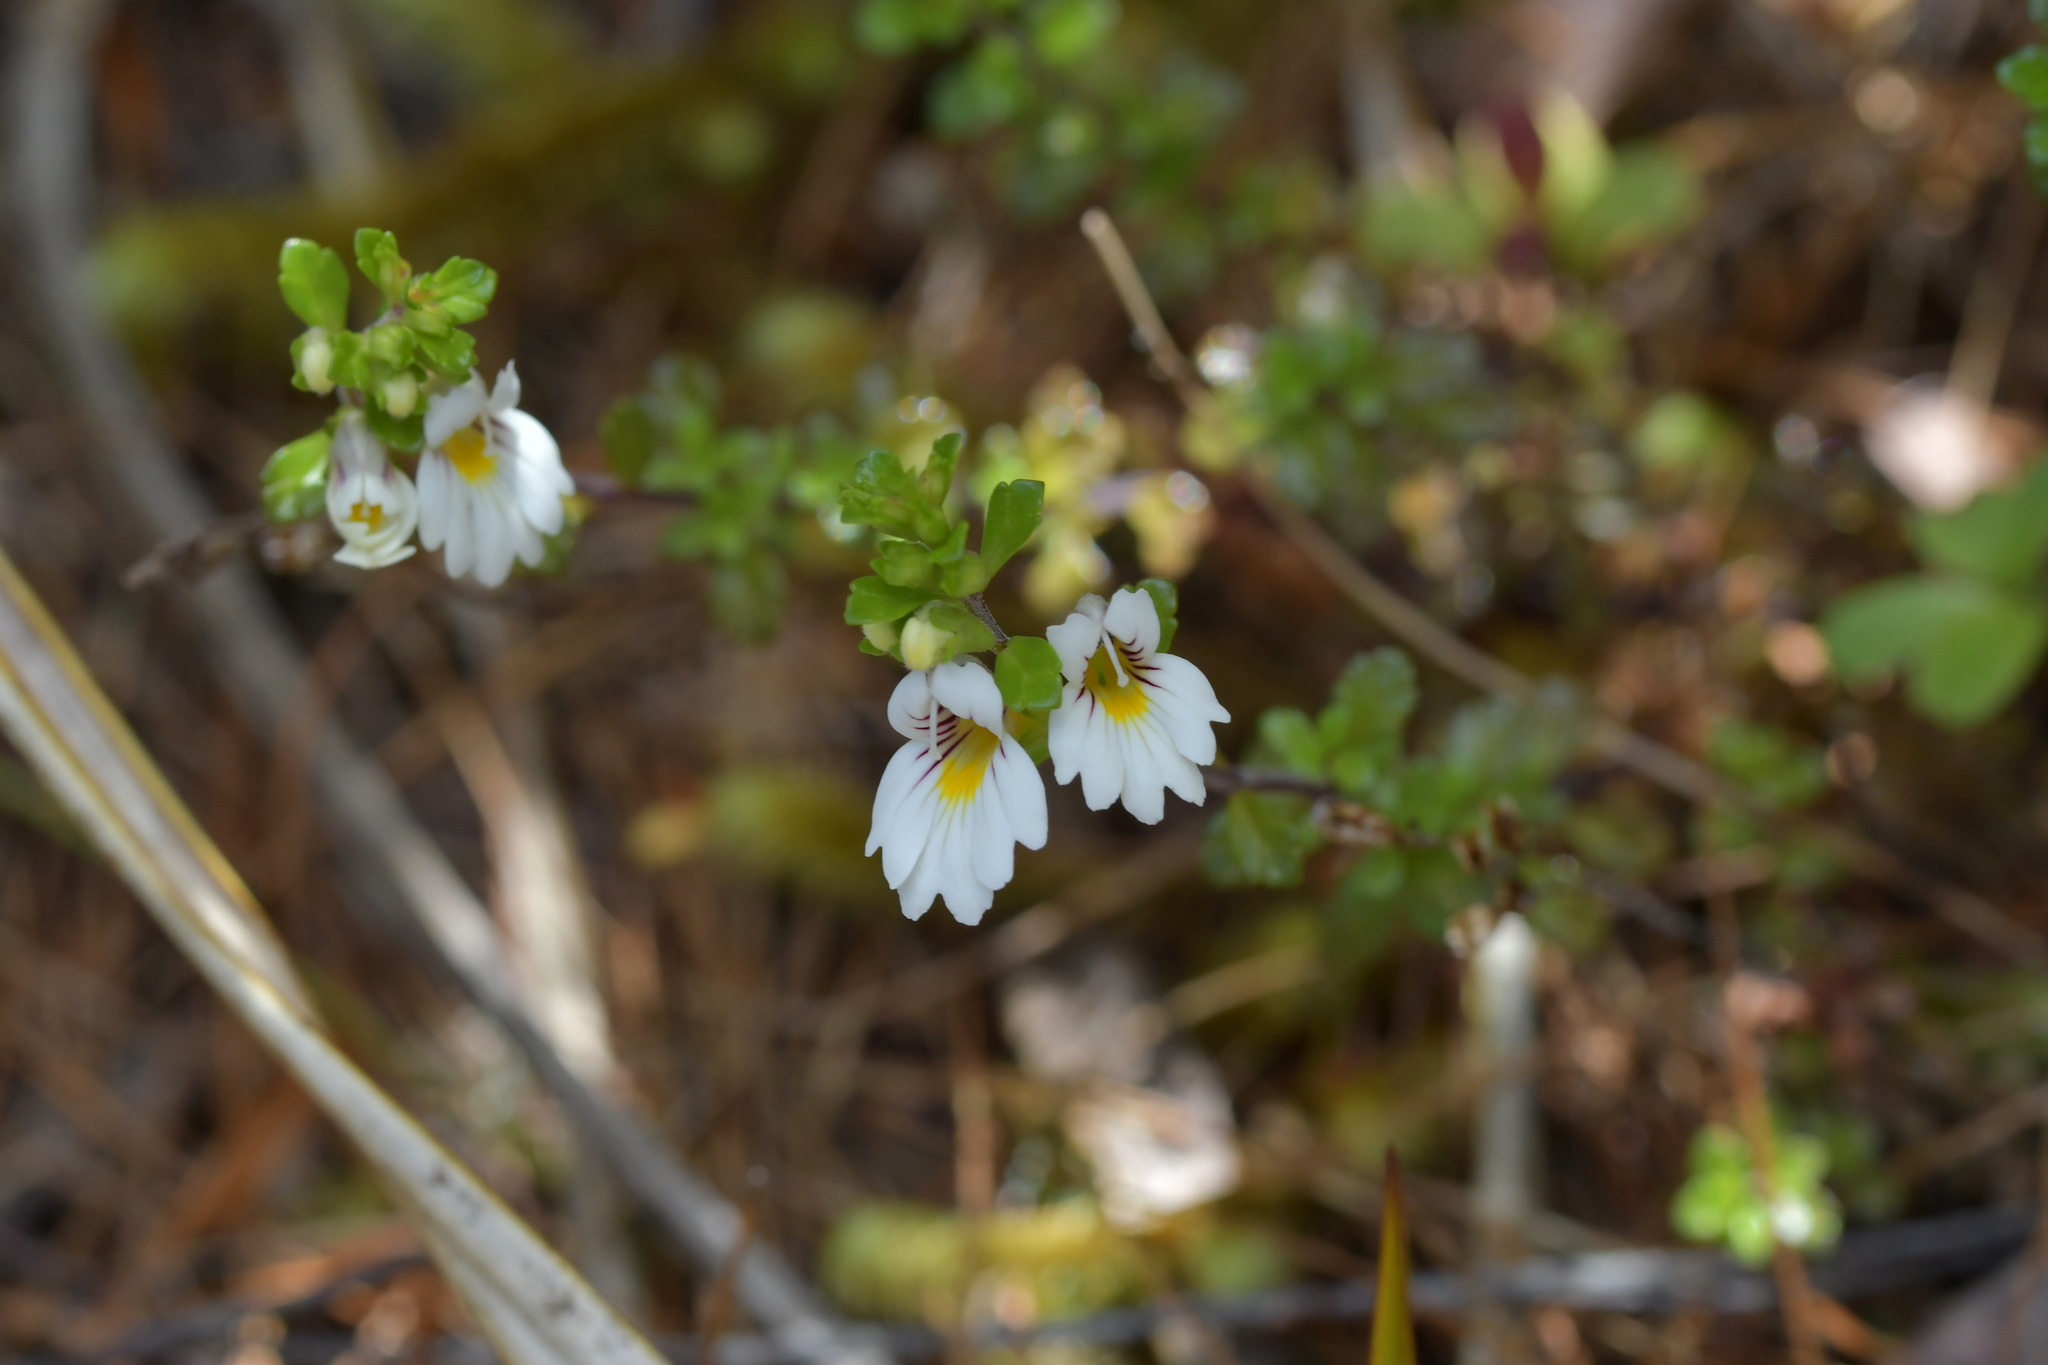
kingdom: Plantae
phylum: Tracheophyta
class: Magnoliopsida
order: Lamiales
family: Orobanchaceae
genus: Euphrasia
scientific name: Euphrasia cuneata
